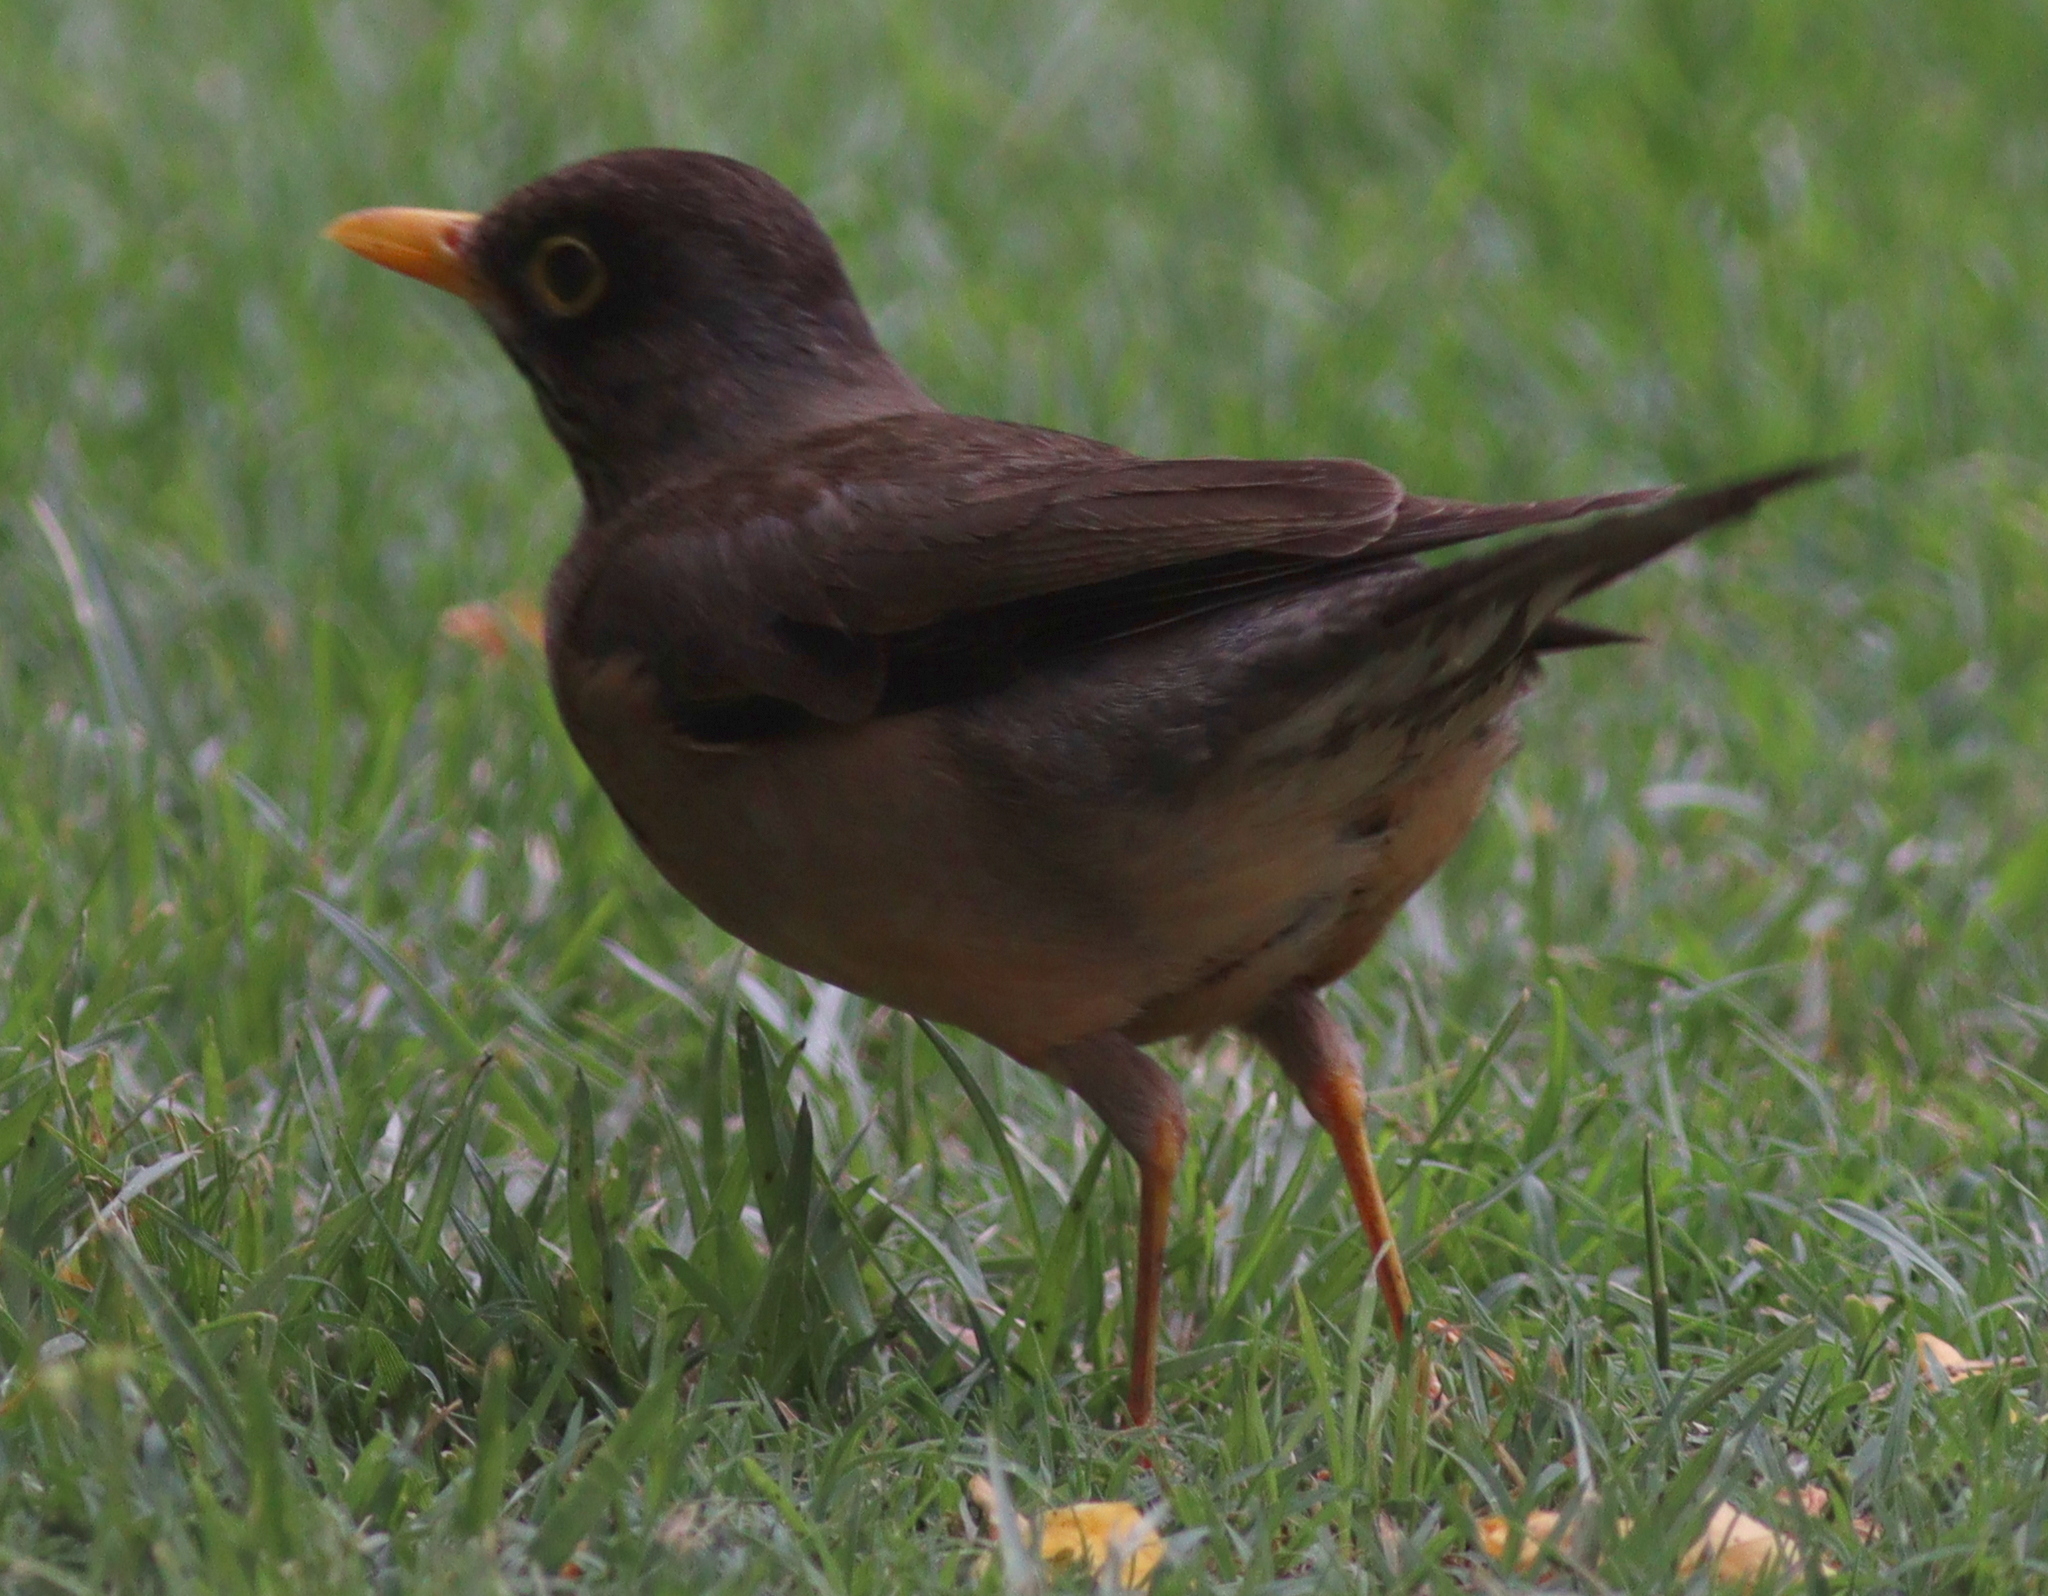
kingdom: Animalia
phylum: Chordata
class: Aves
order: Passeriformes
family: Turdidae
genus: Turdus
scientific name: Turdus falcklandii
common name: Austral thrush
